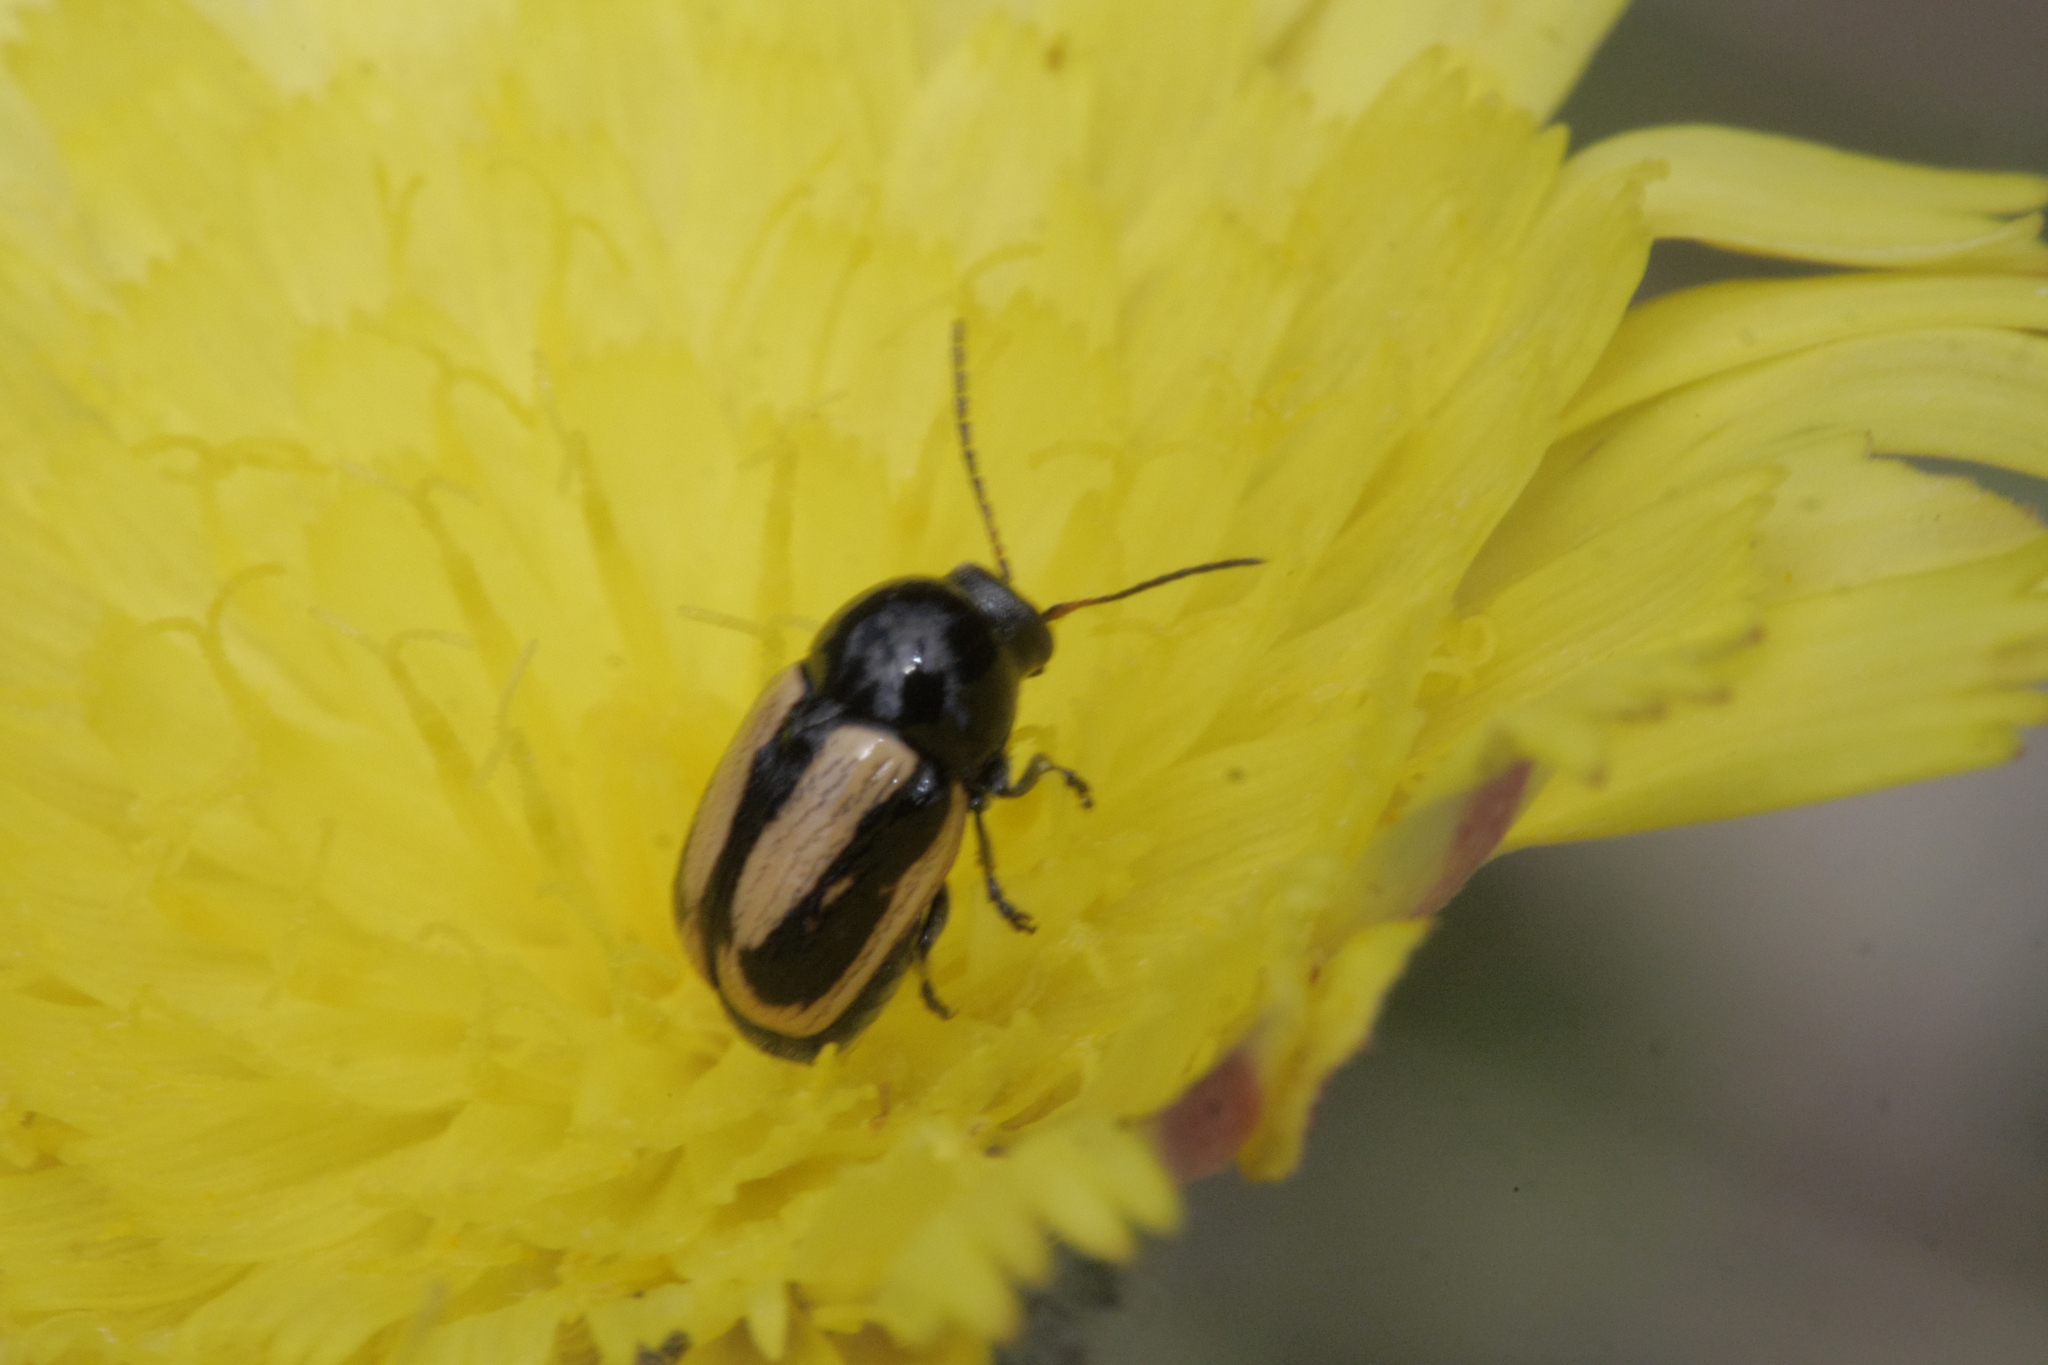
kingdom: Animalia
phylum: Arthropoda
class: Insecta
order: Coleoptera
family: Chrysomelidae
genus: Acalymma
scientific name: Acalymma vittatum
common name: Striped cucumber beetle
